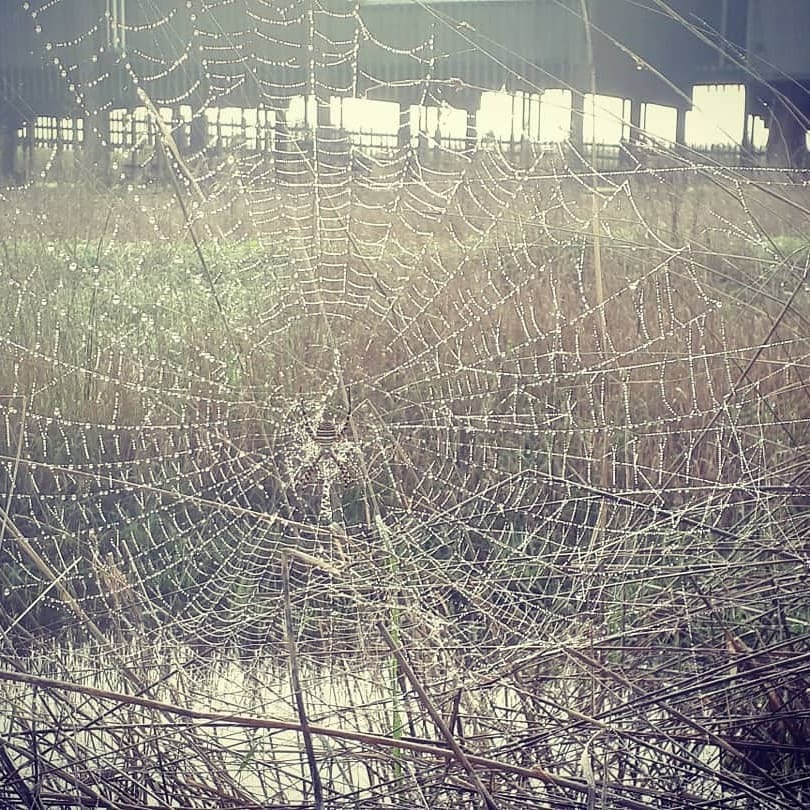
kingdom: Animalia
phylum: Arthropoda
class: Arachnida
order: Araneae
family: Araneidae
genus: Argiope
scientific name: Argiope trifasciata
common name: Banded garden spider
